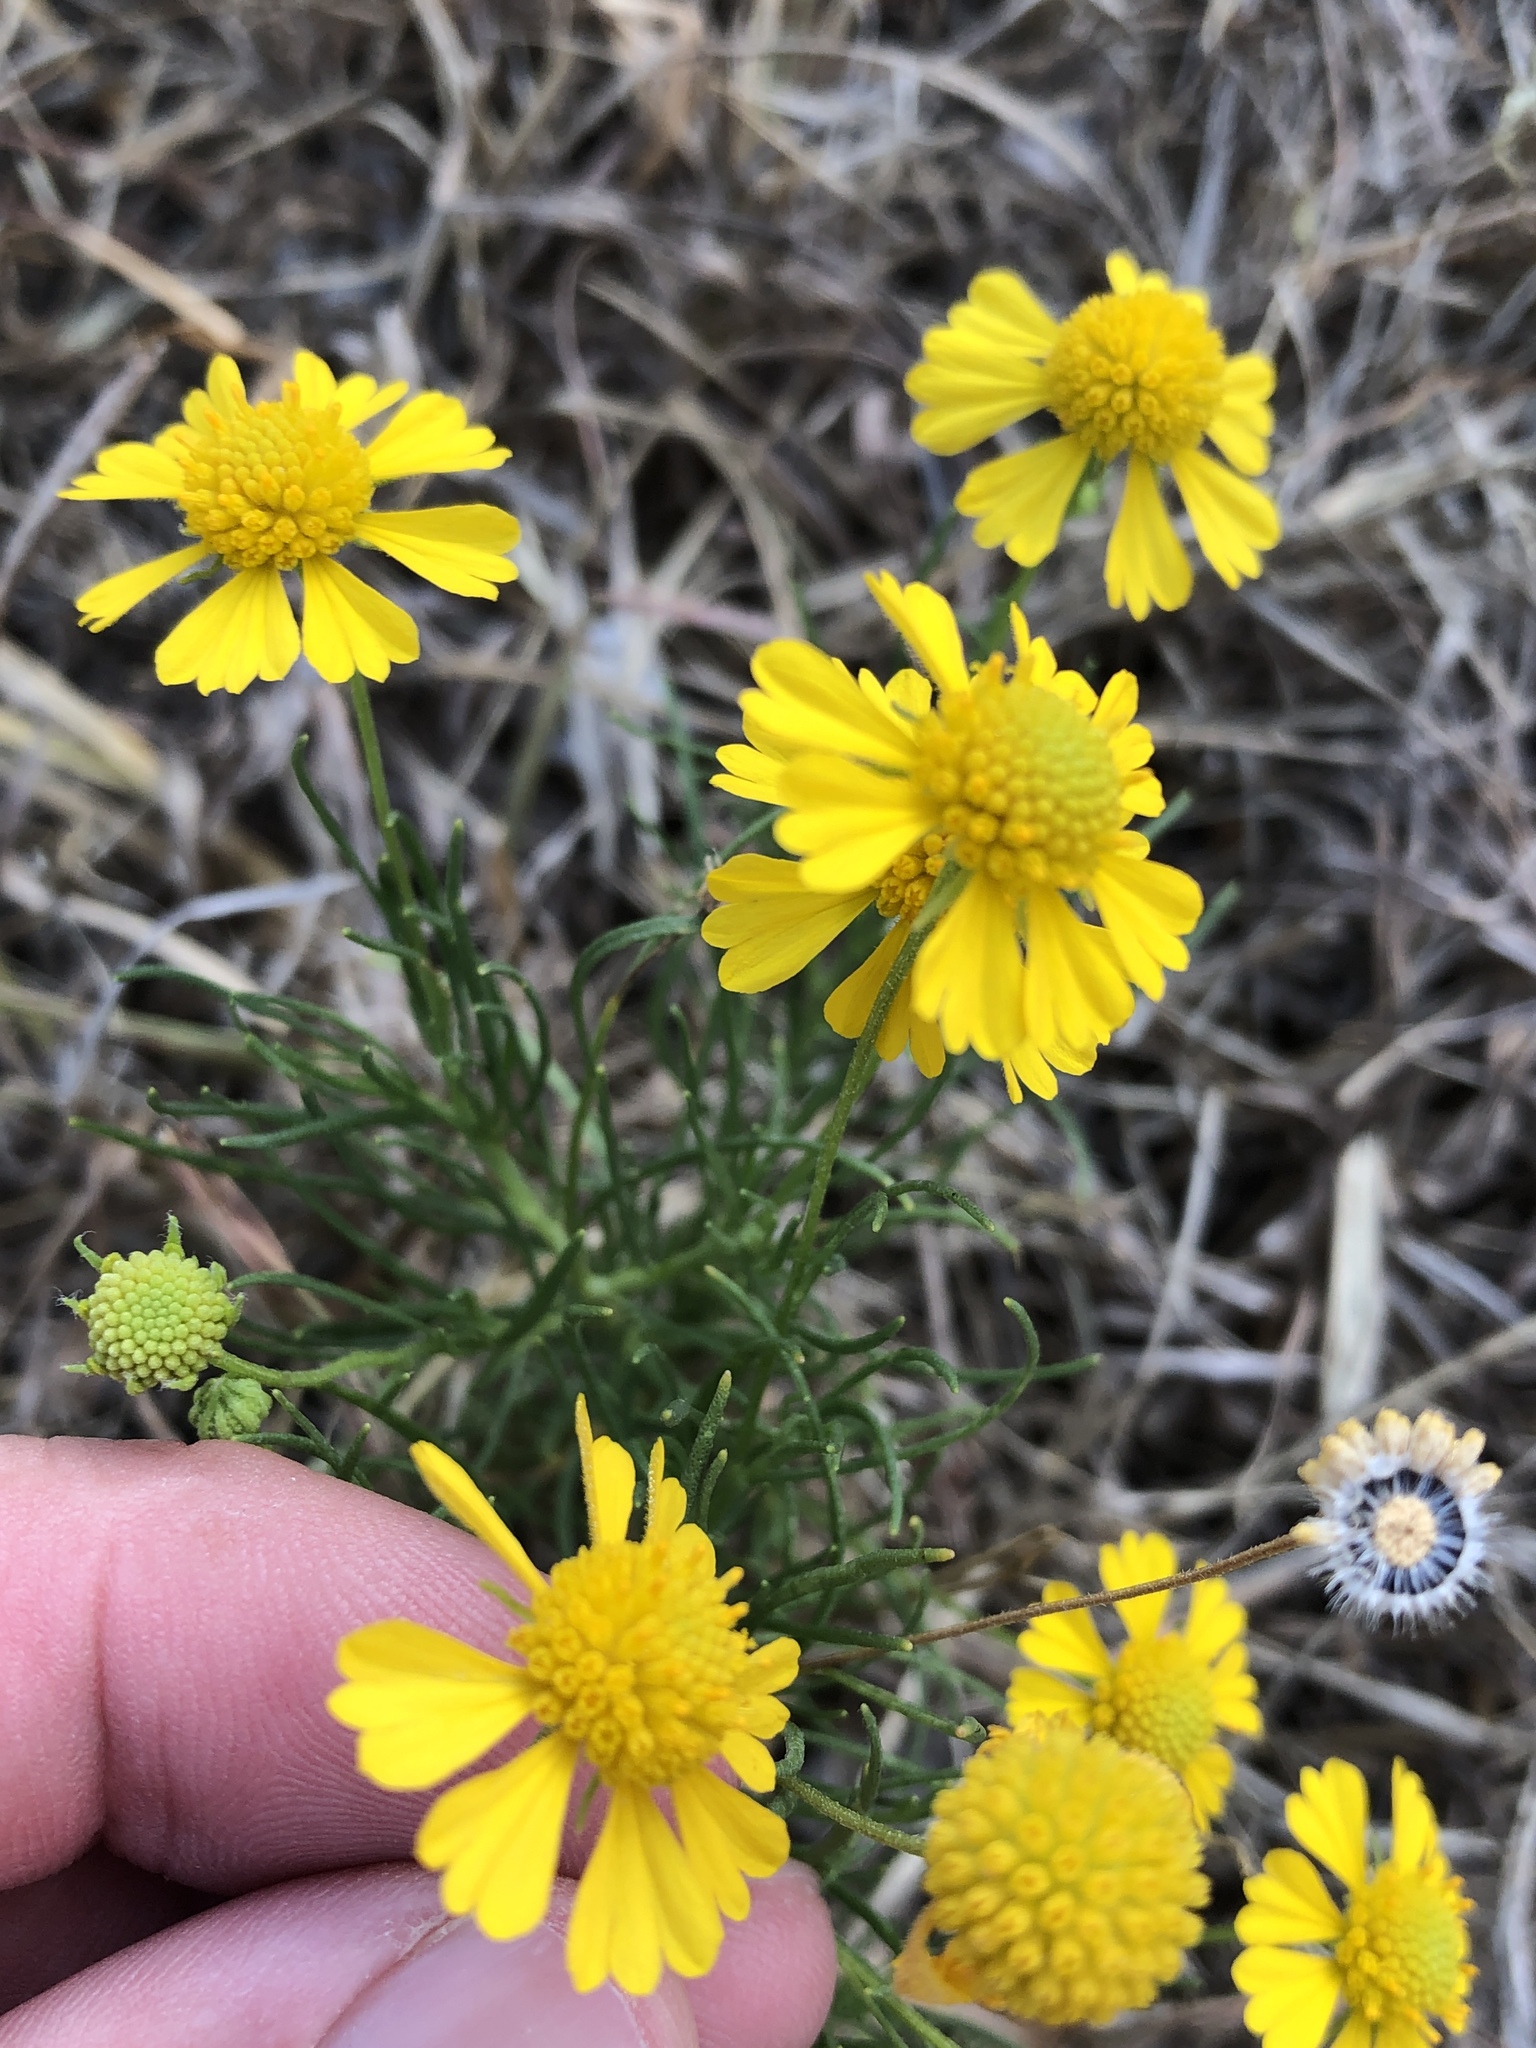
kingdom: Plantae
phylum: Tracheophyta
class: Magnoliopsida
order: Asterales
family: Asteraceae
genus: Helenium
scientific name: Helenium amarum
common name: Bitter sneezeweed
